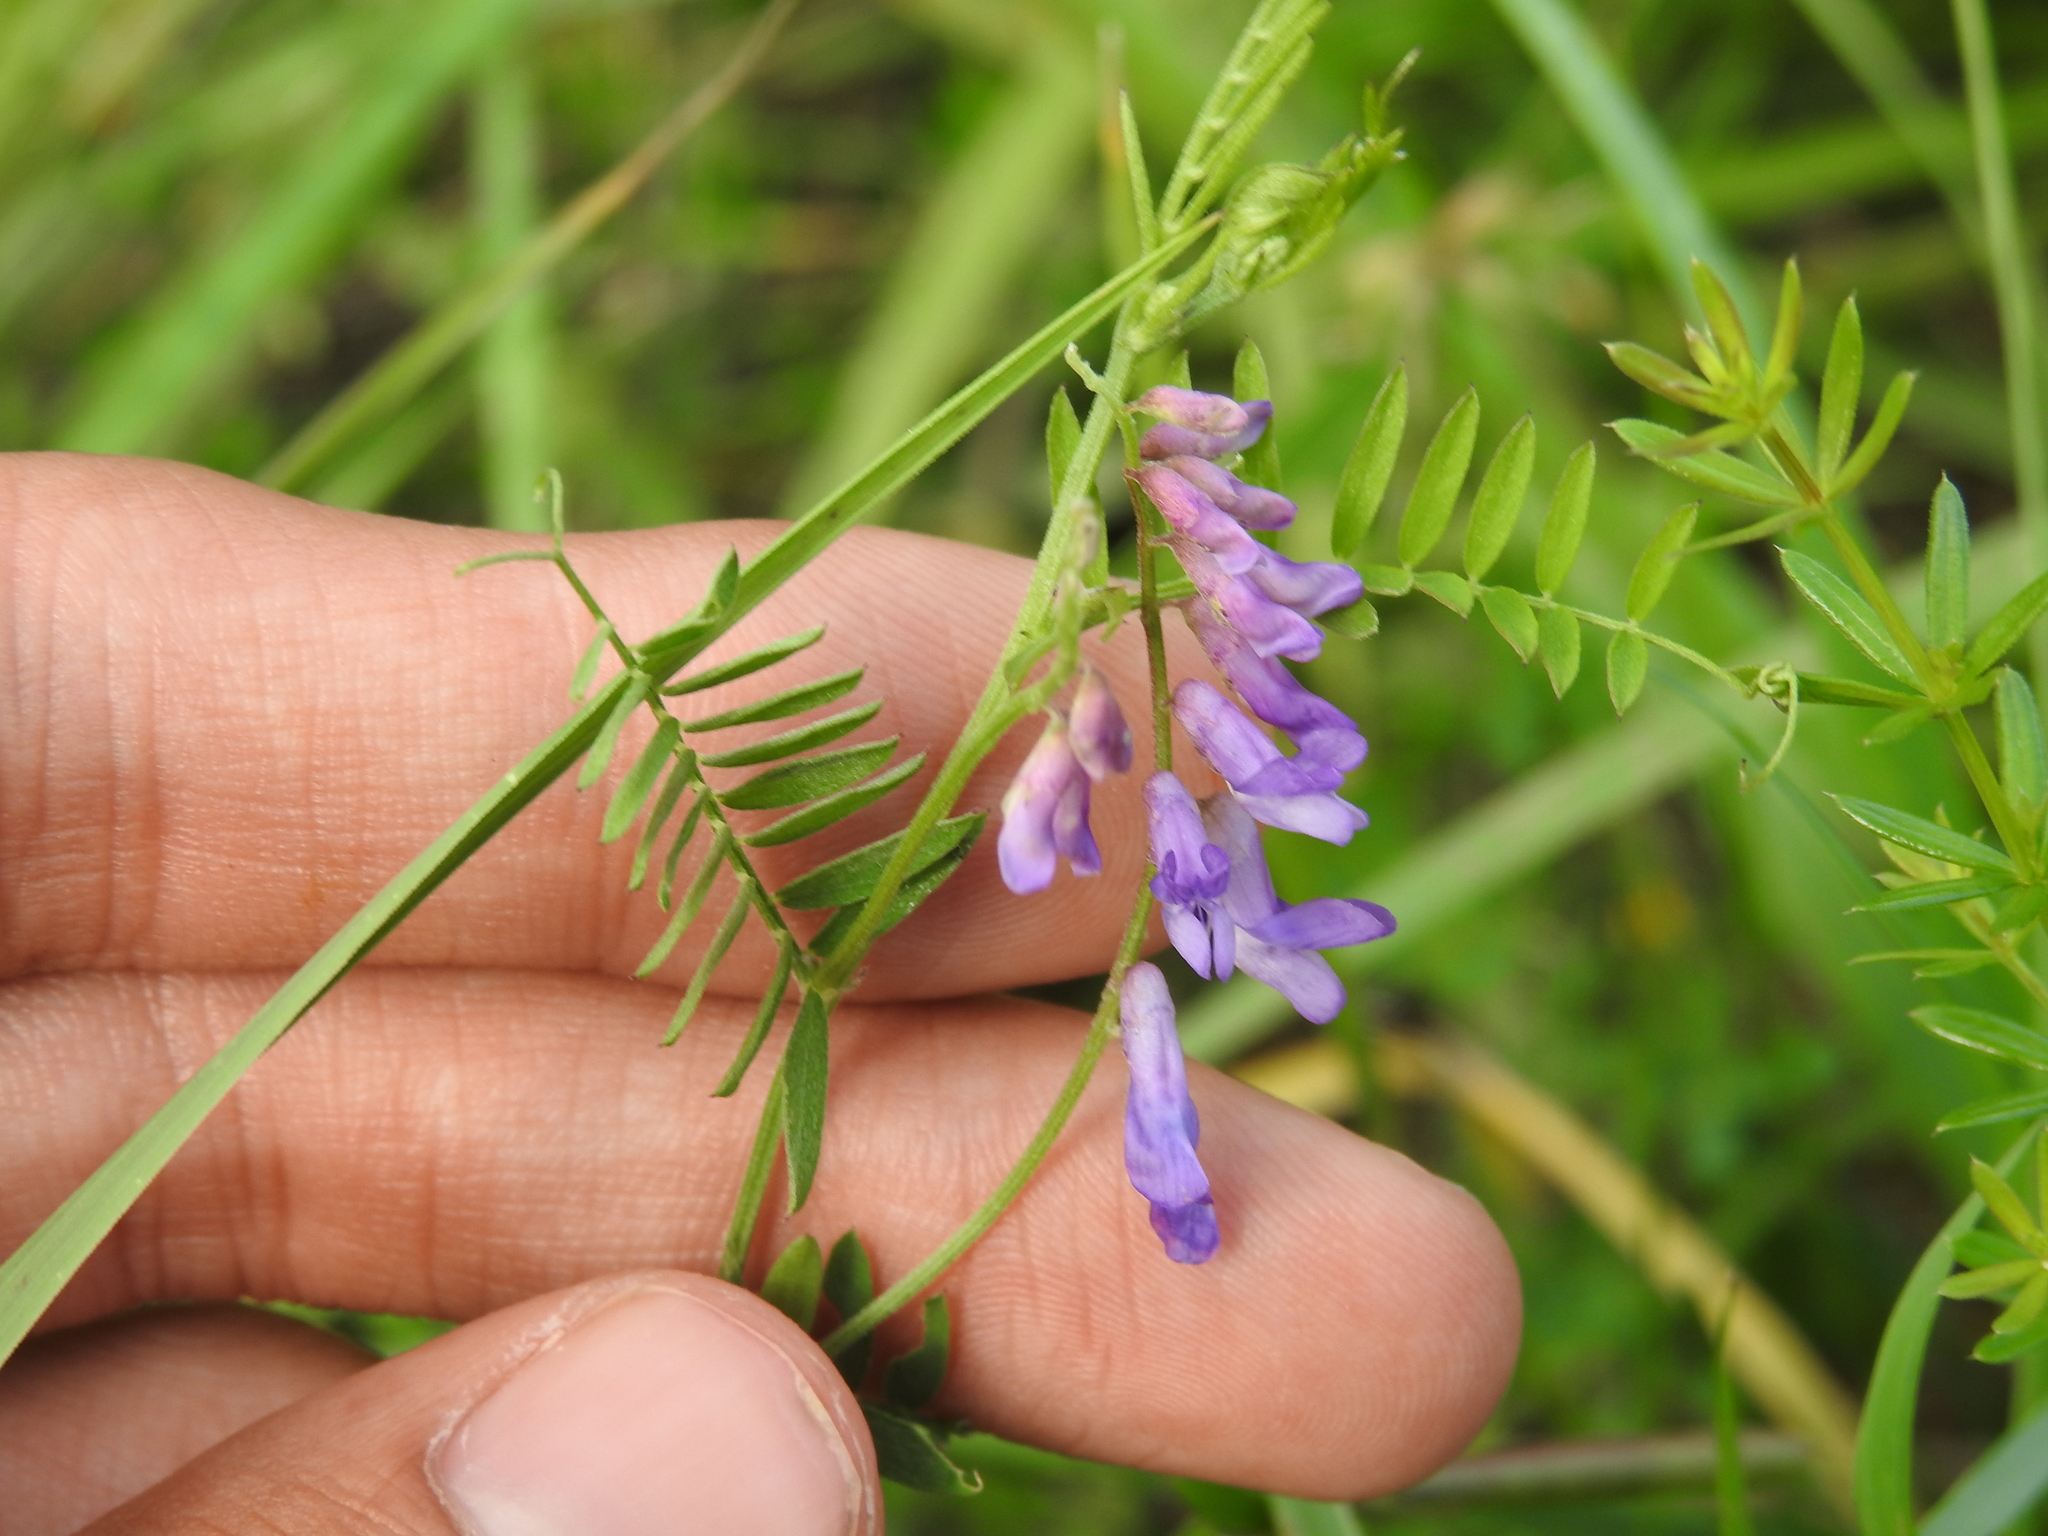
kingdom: Plantae
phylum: Tracheophyta
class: Magnoliopsida
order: Fabales
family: Fabaceae
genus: Vicia
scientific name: Vicia cracca
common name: Bird vetch
